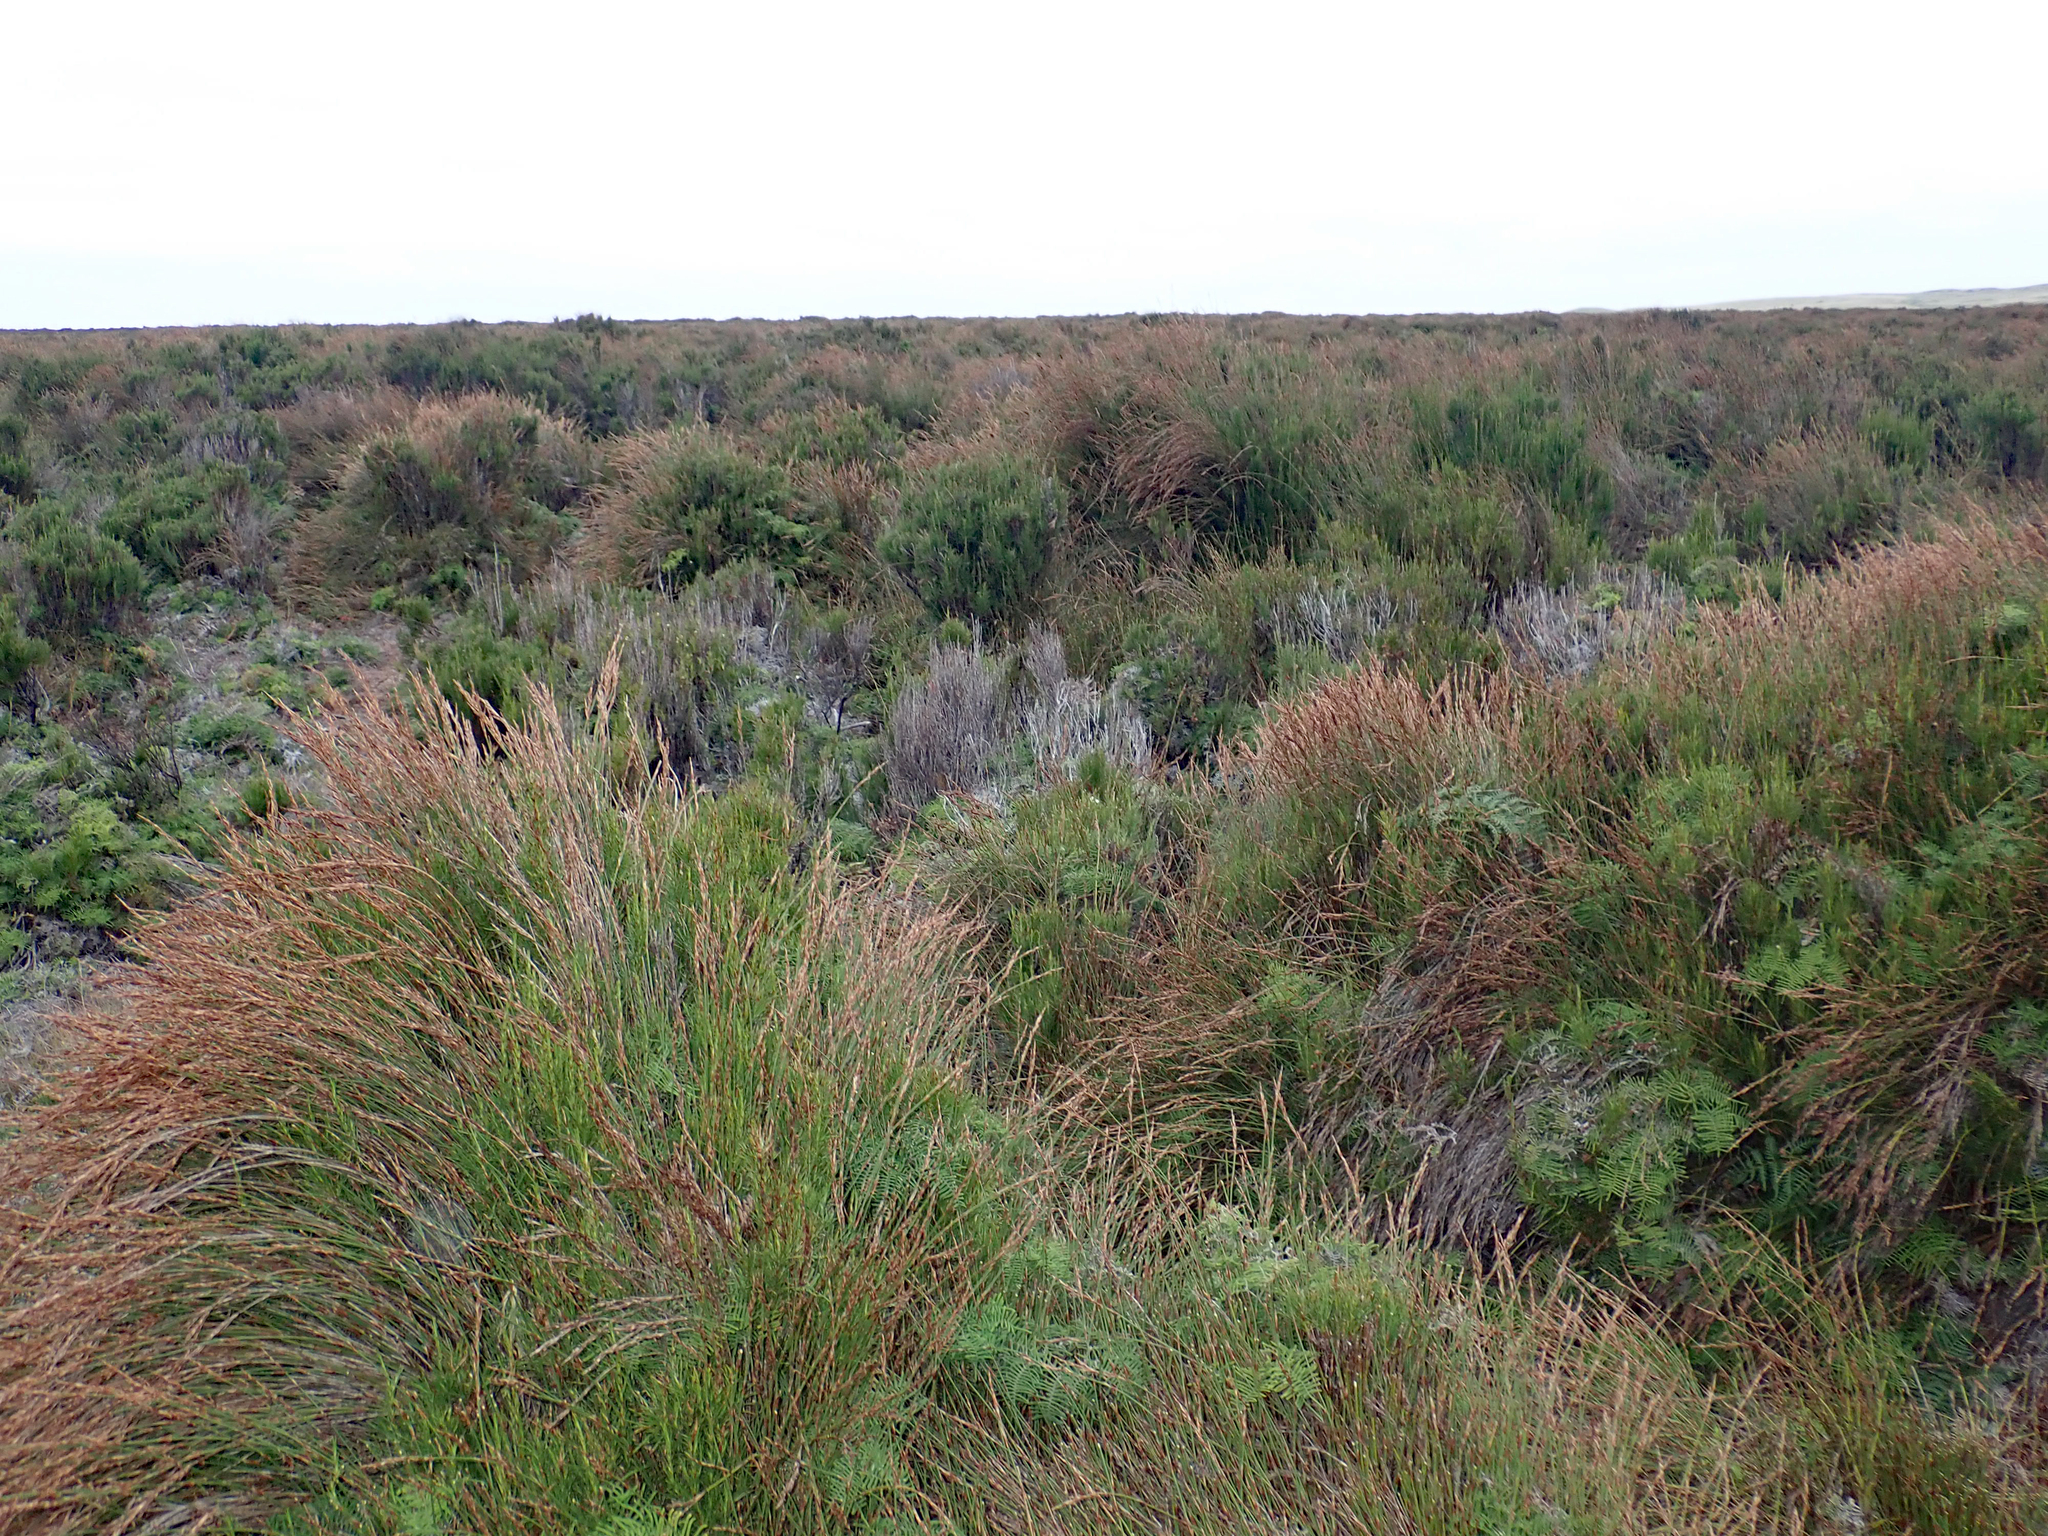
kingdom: Plantae
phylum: Tracheophyta
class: Liliopsida
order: Poales
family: Restionaceae
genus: Sporadanthus
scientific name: Sporadanthus traversii
